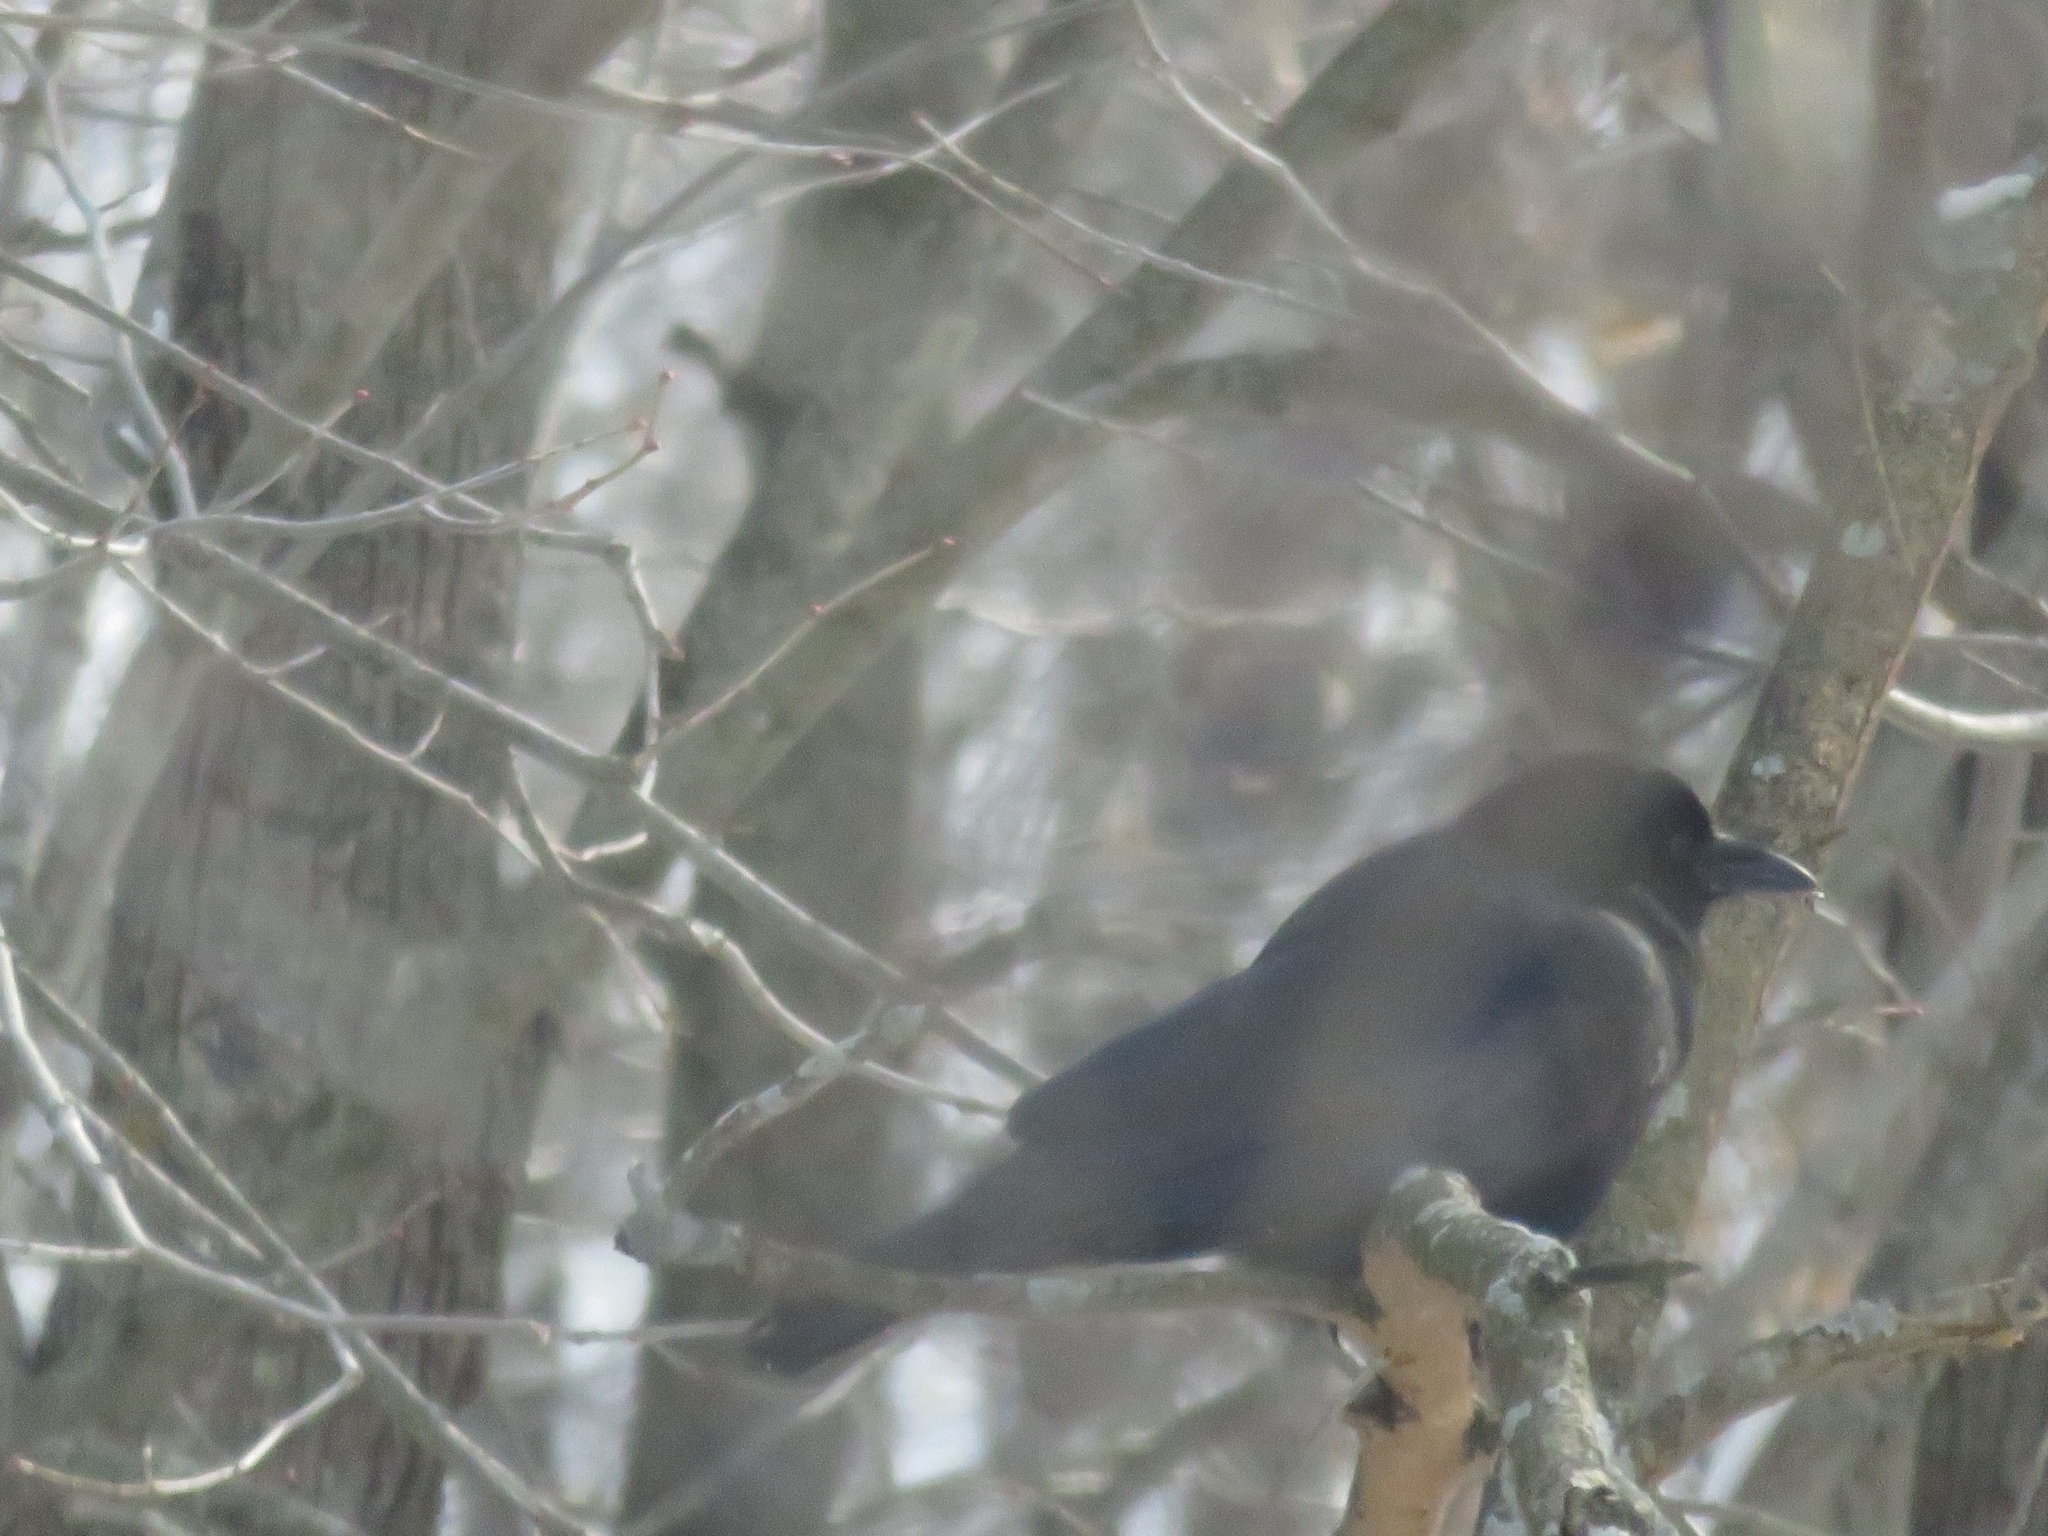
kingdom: Animalia
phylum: Chordata
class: Aves
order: Passeriformes
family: Corvidae
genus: Corvus
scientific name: Corvus brachyrhynchos
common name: American crow
